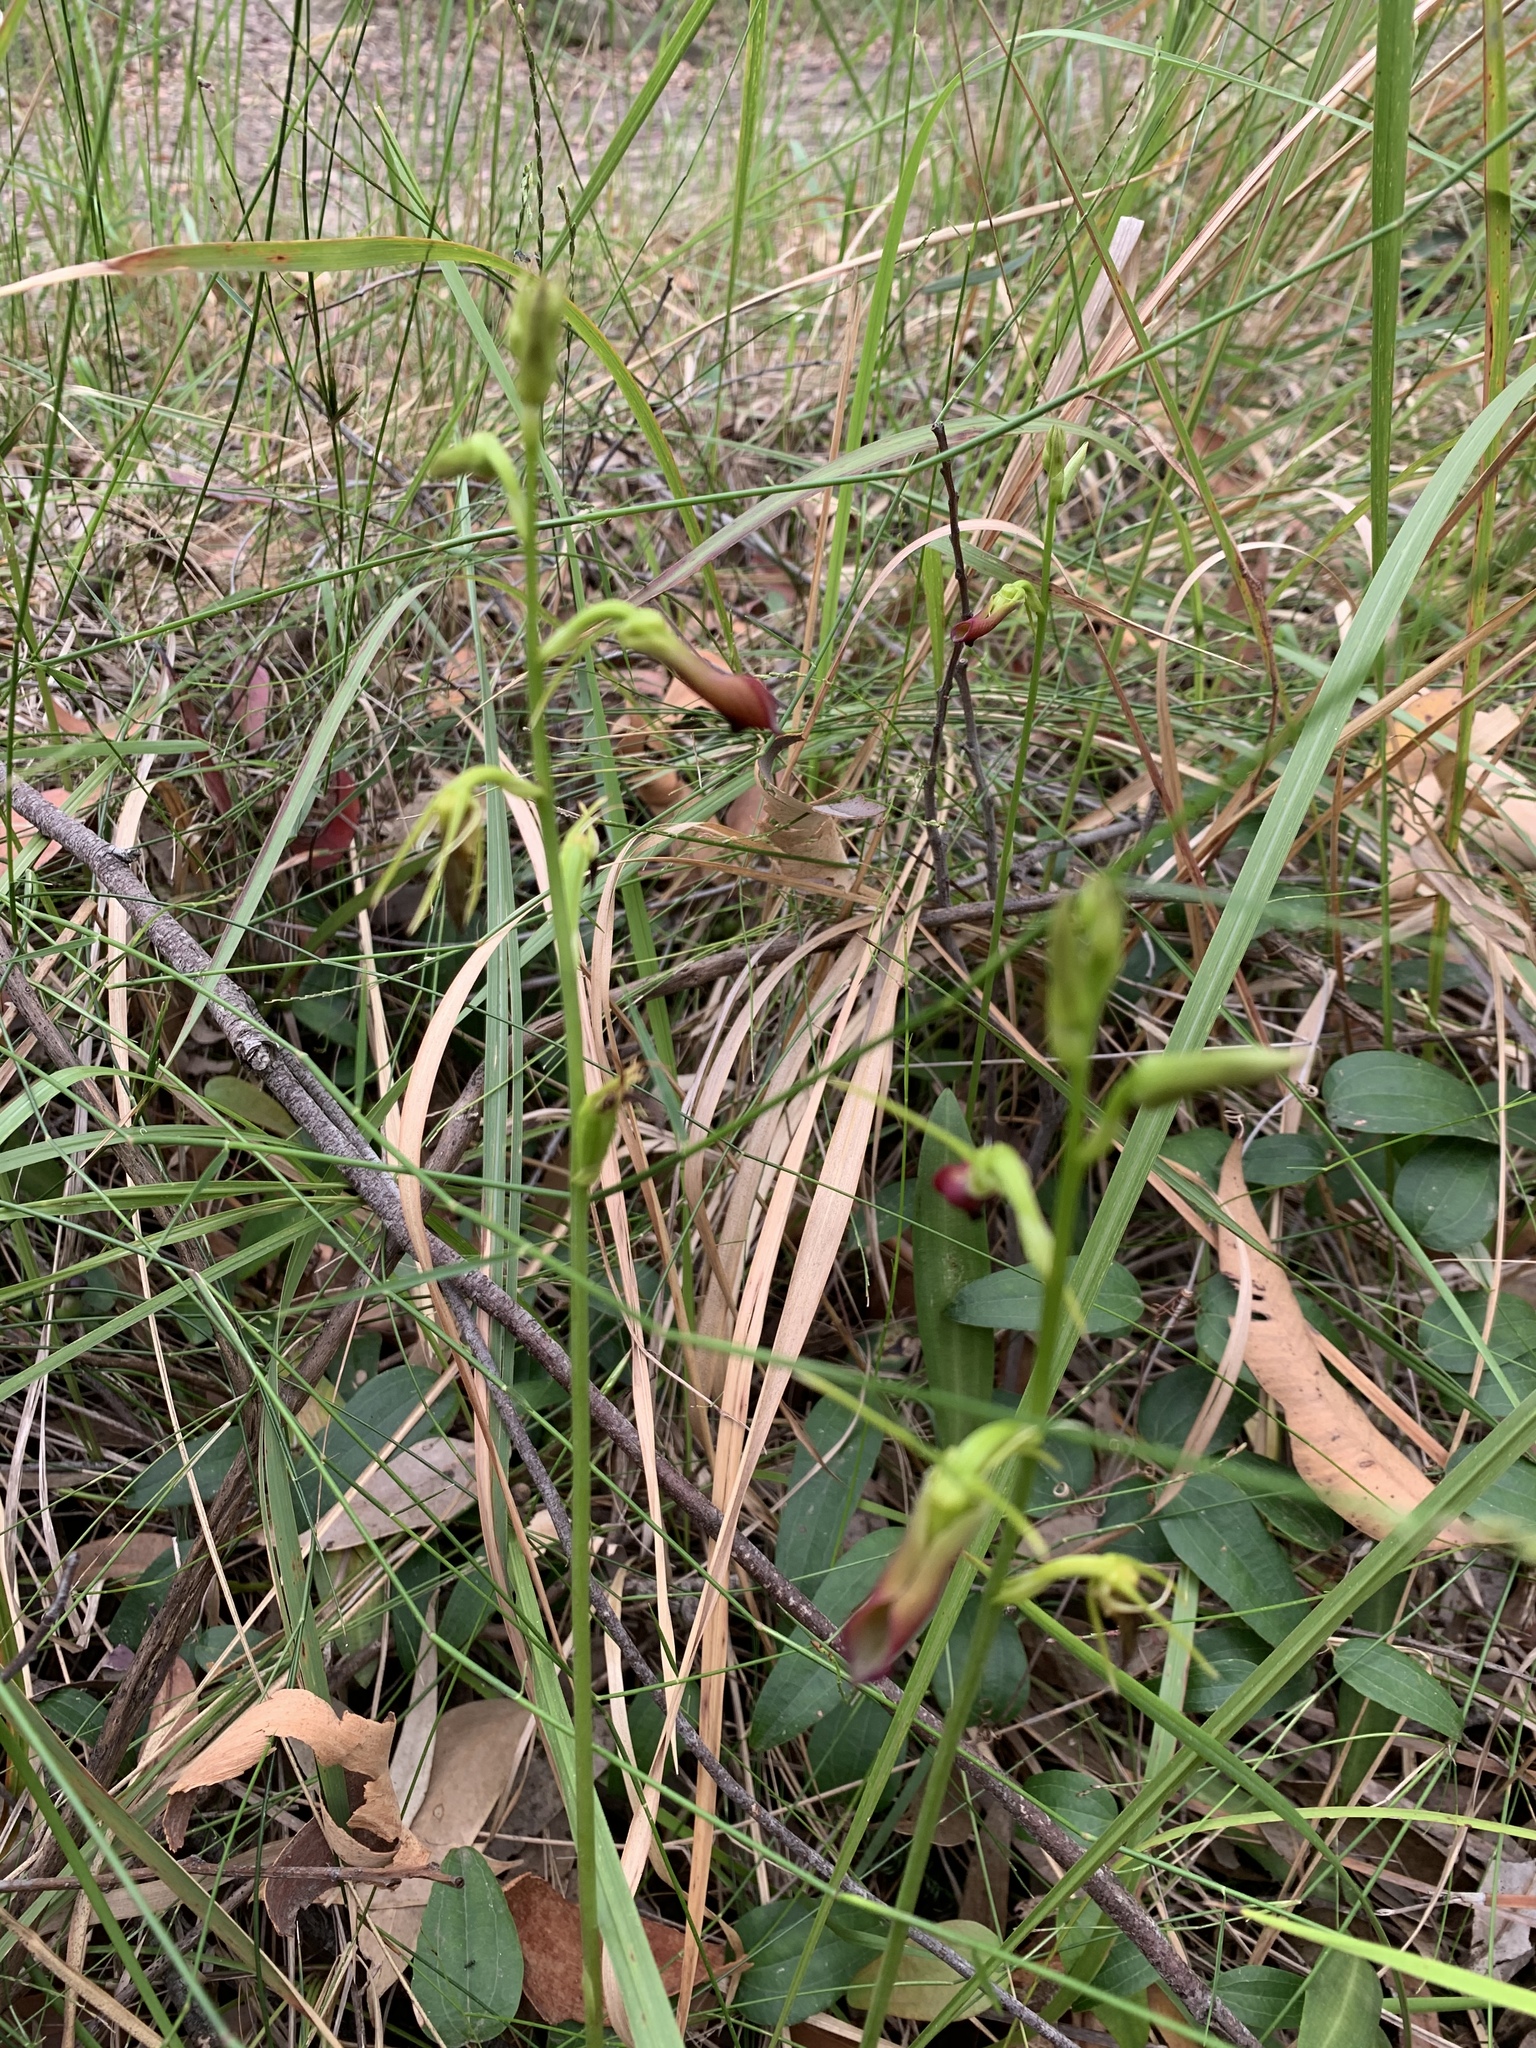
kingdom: Plantae
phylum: Tracheophyta
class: Liliopsida
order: Asparagales
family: Orchidaceae
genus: Cryptostylis
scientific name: Cryptostylis subulata
